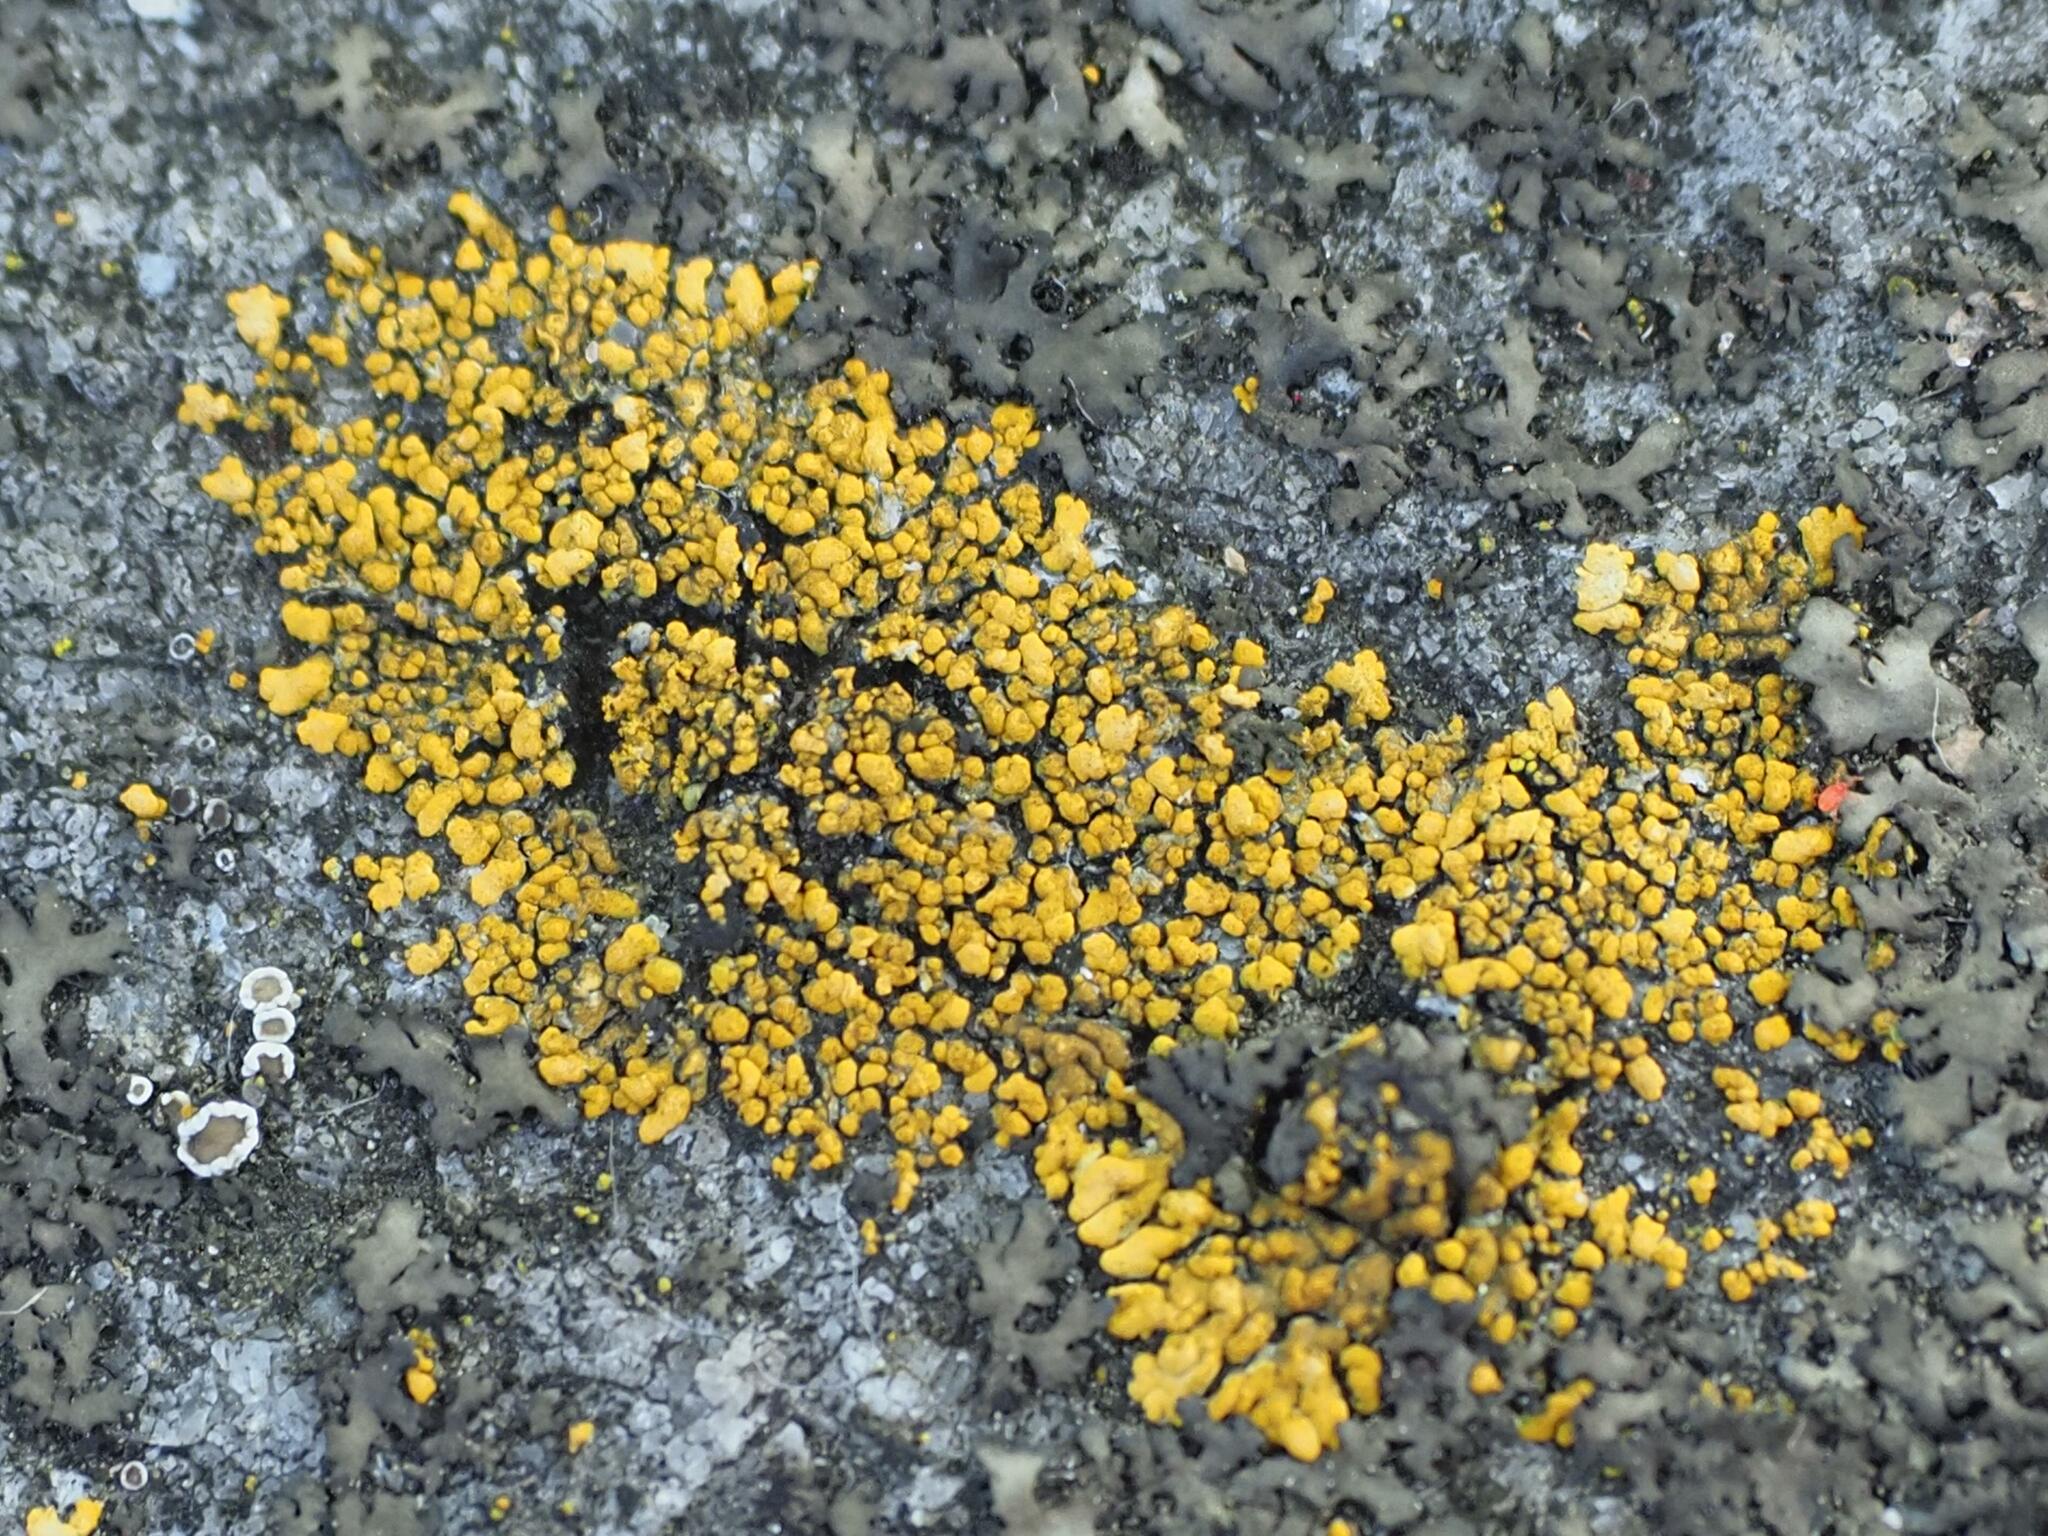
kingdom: Fungi
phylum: Ascomycota
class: Lecanoromycetes
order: Teloschistales
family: Teloschistaceae
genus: Calogaya
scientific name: Calogaya decipiens
